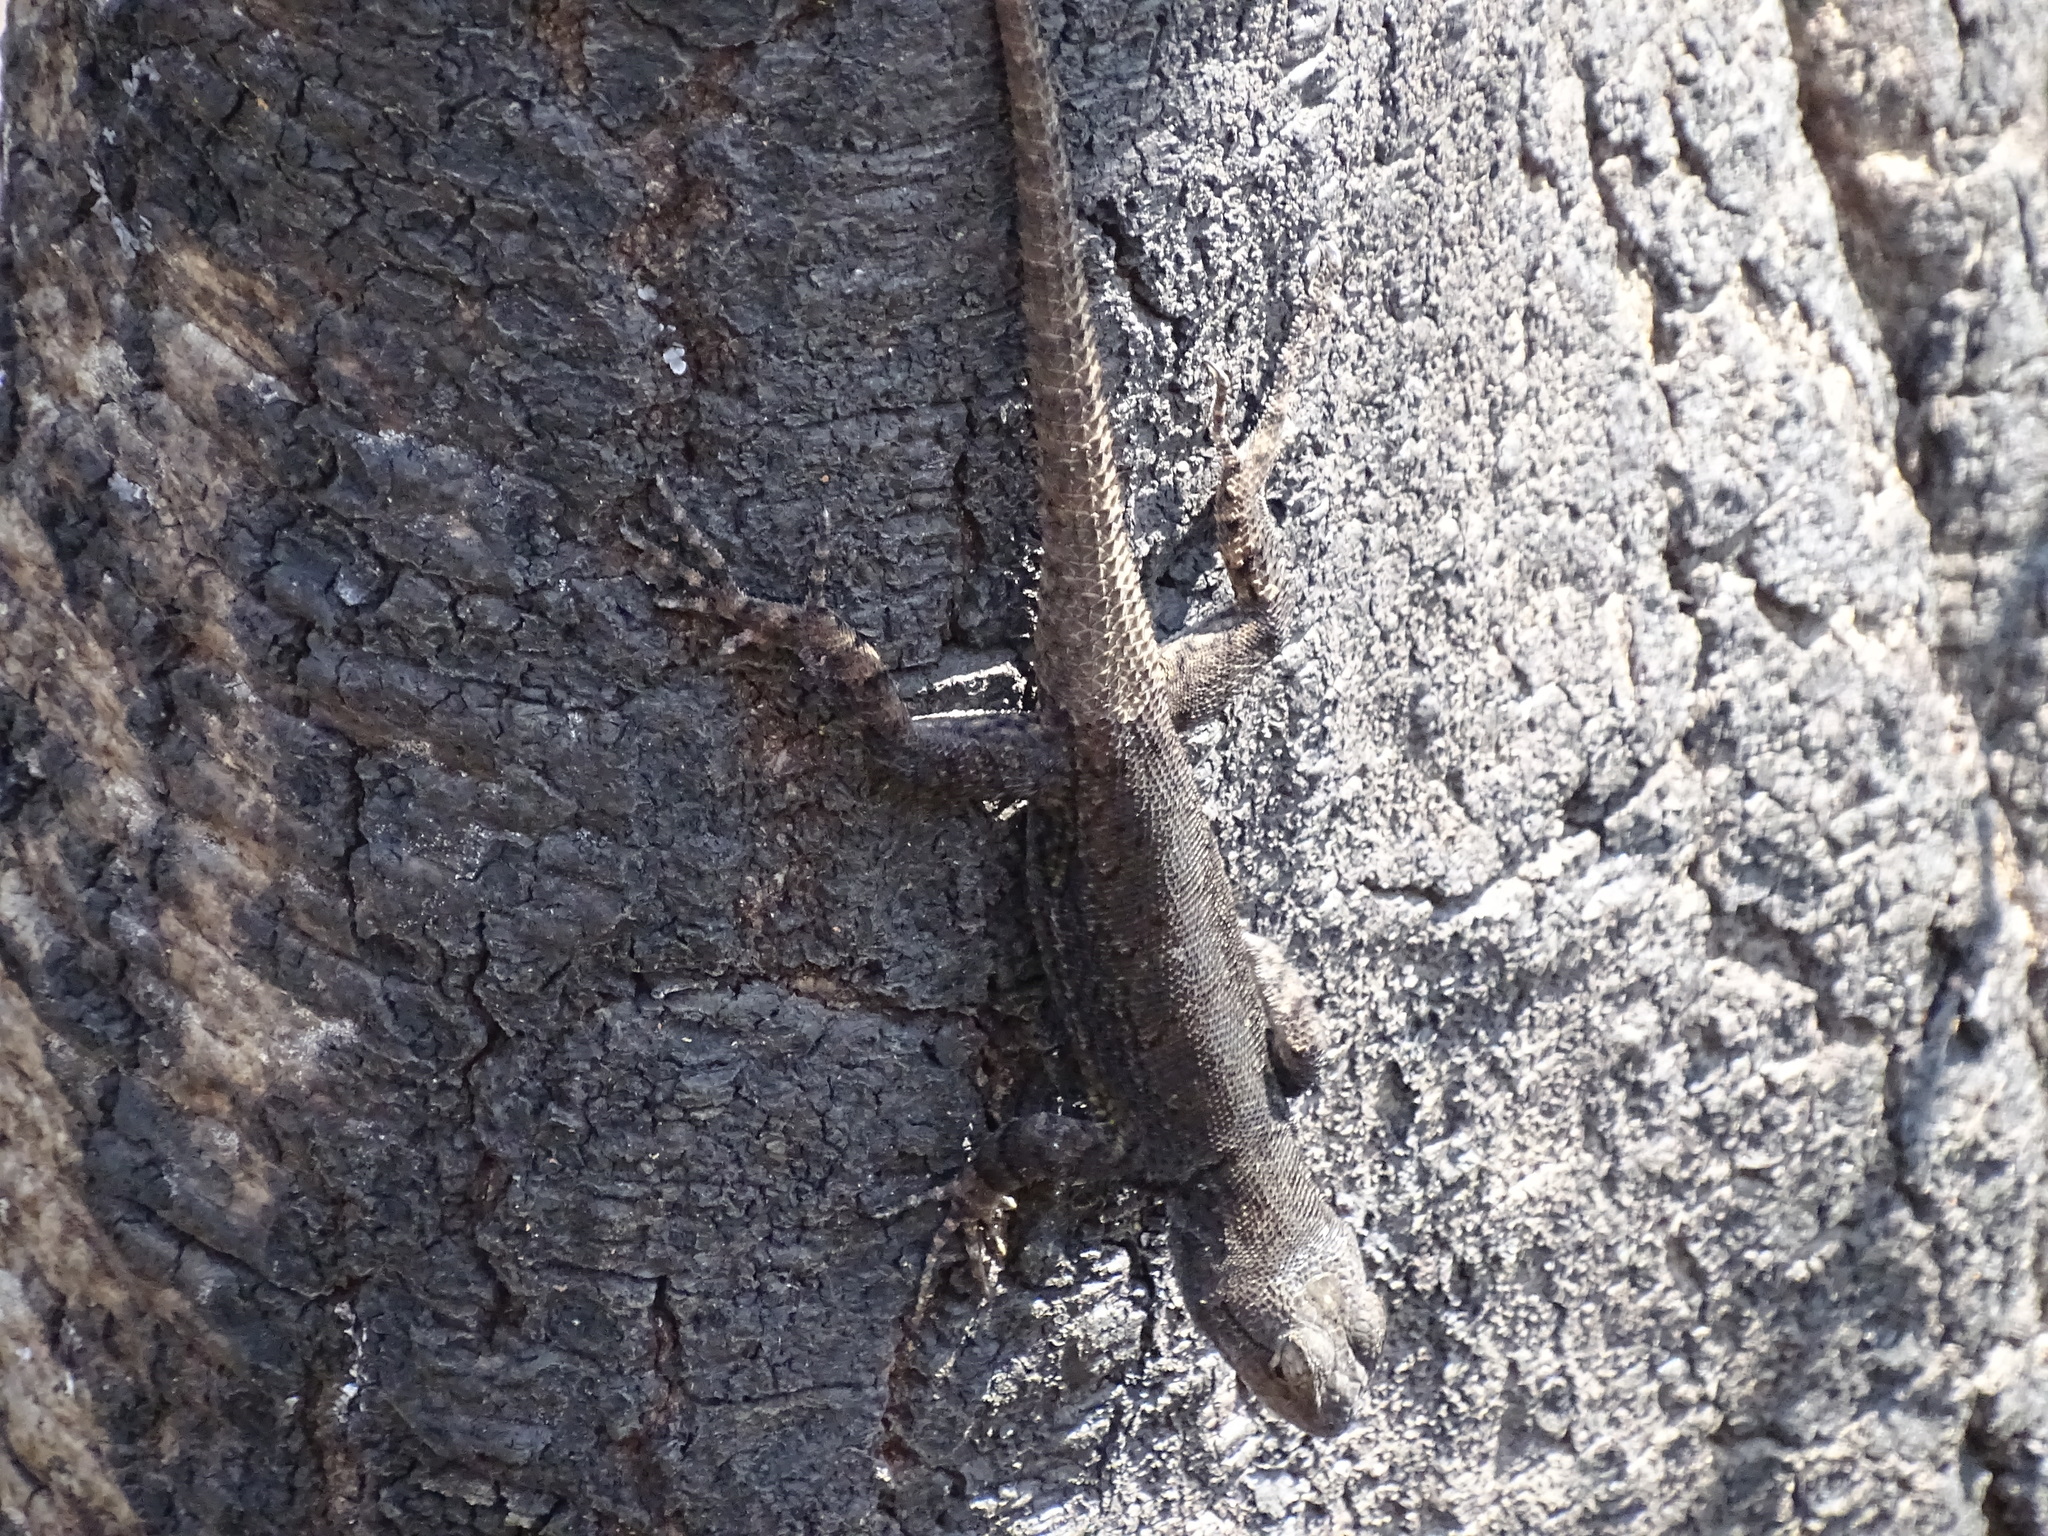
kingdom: Animalia
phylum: Chordata
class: Squamata
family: Phrynosomatidae
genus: Sceloporus
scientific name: Sceloporus grammicus
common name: Mesquite lizard
